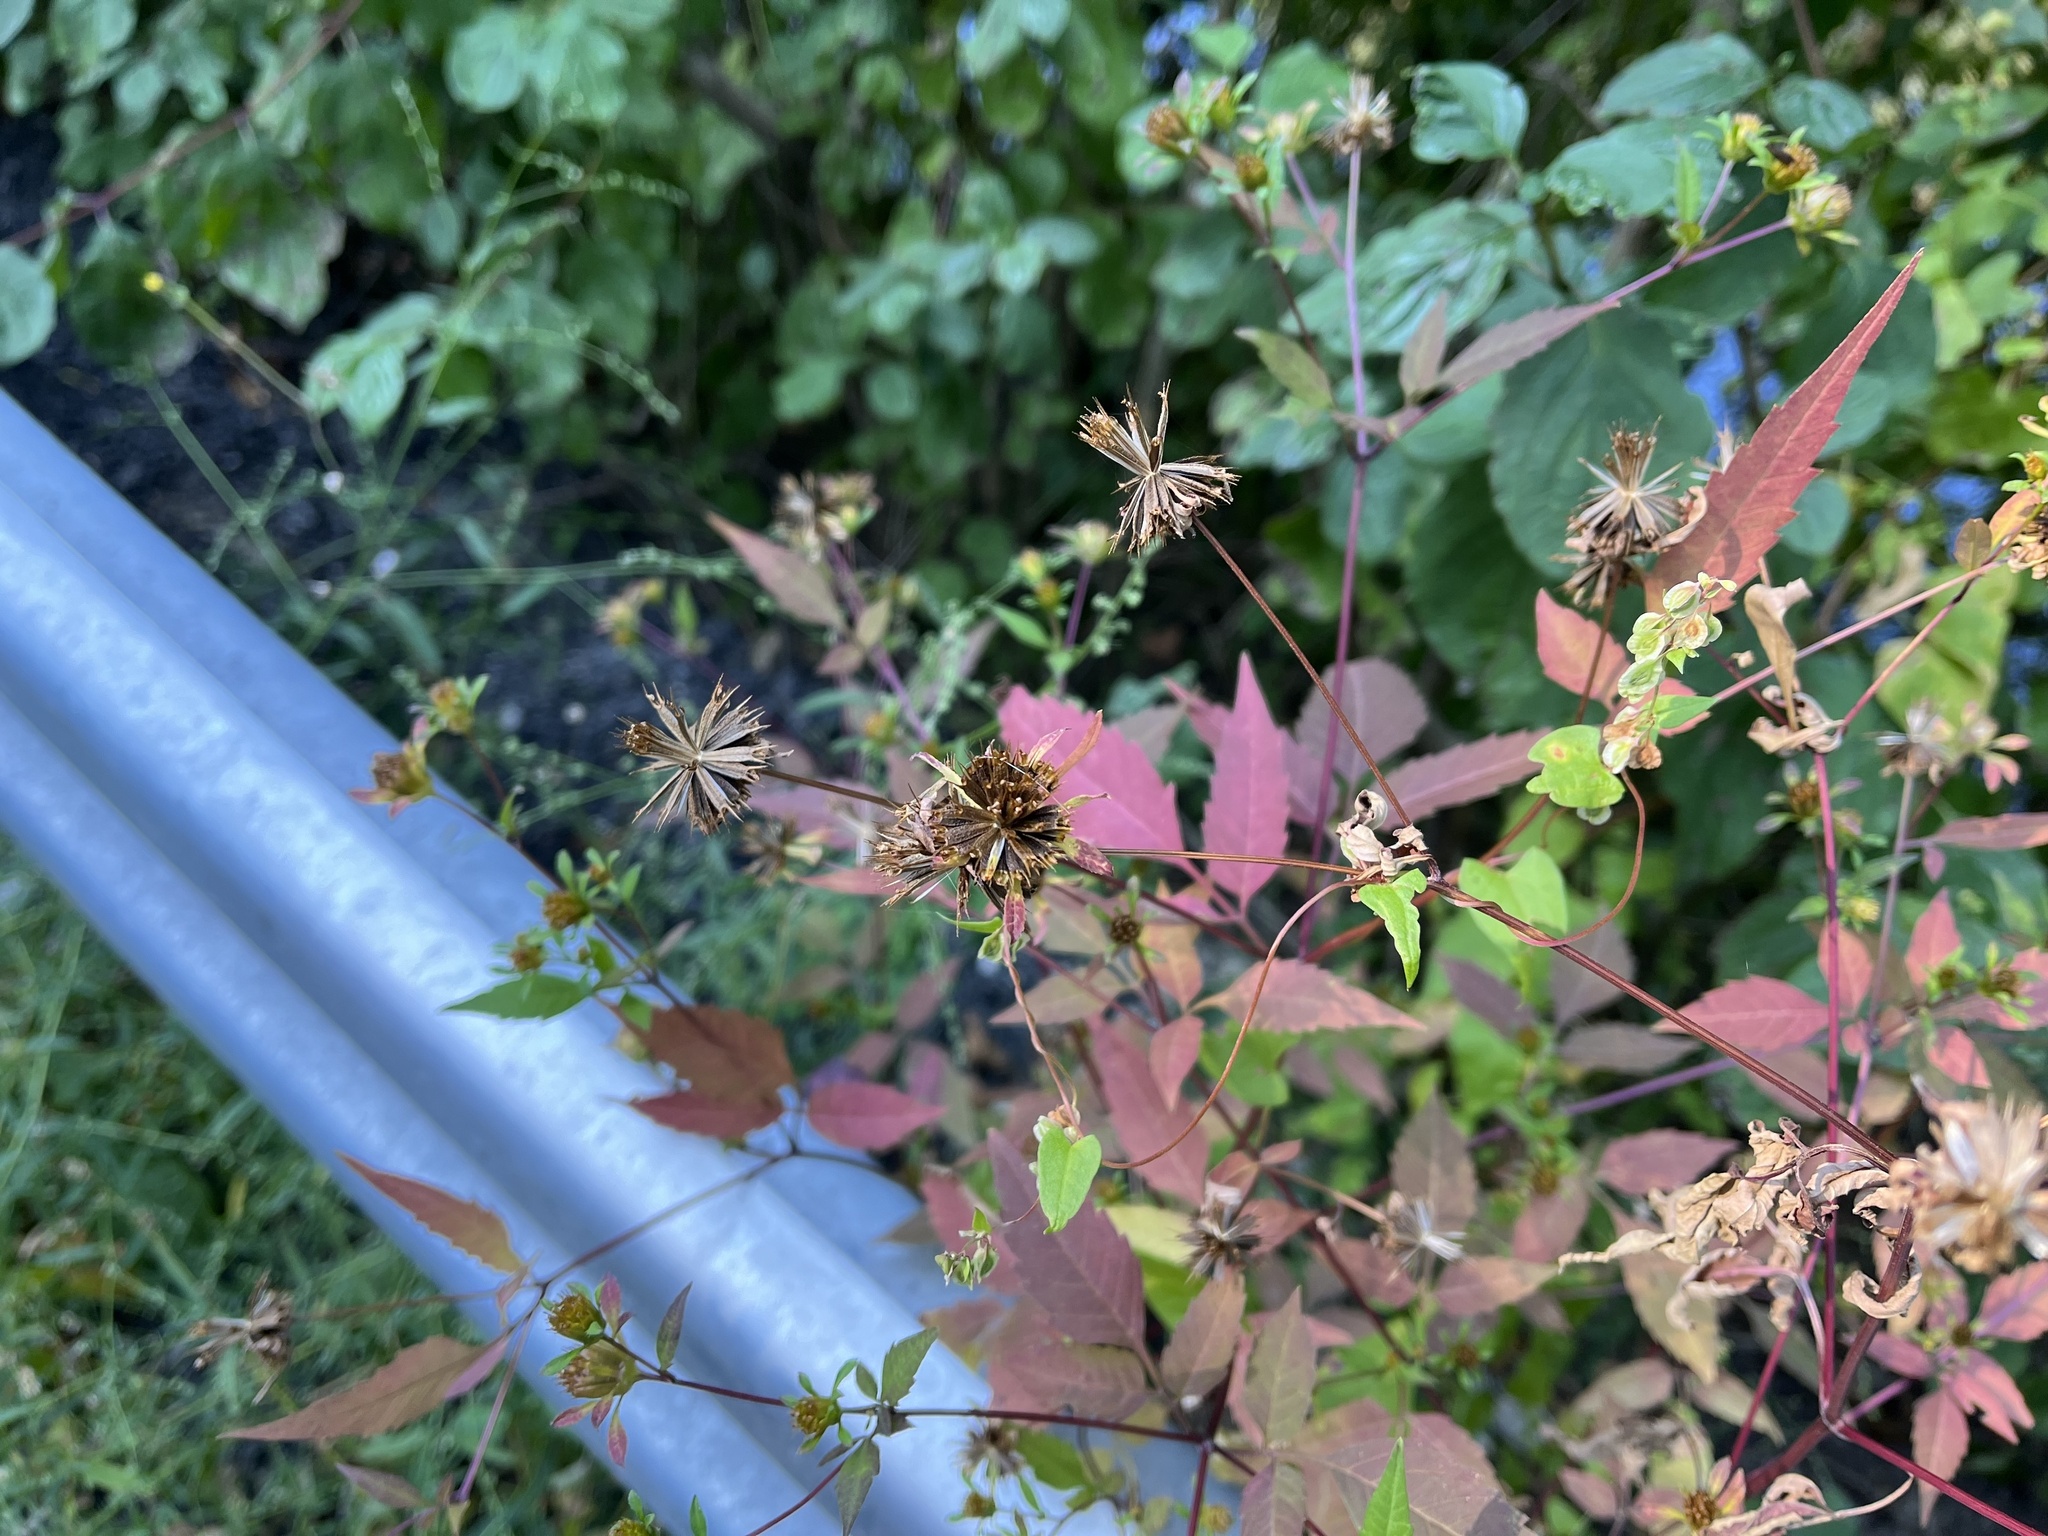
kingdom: Plantae
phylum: Tracheophyta
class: Magnoliopsida
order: Asterales
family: Asteraceae
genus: Bidens
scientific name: Bidens frondosa
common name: Beggarticks
